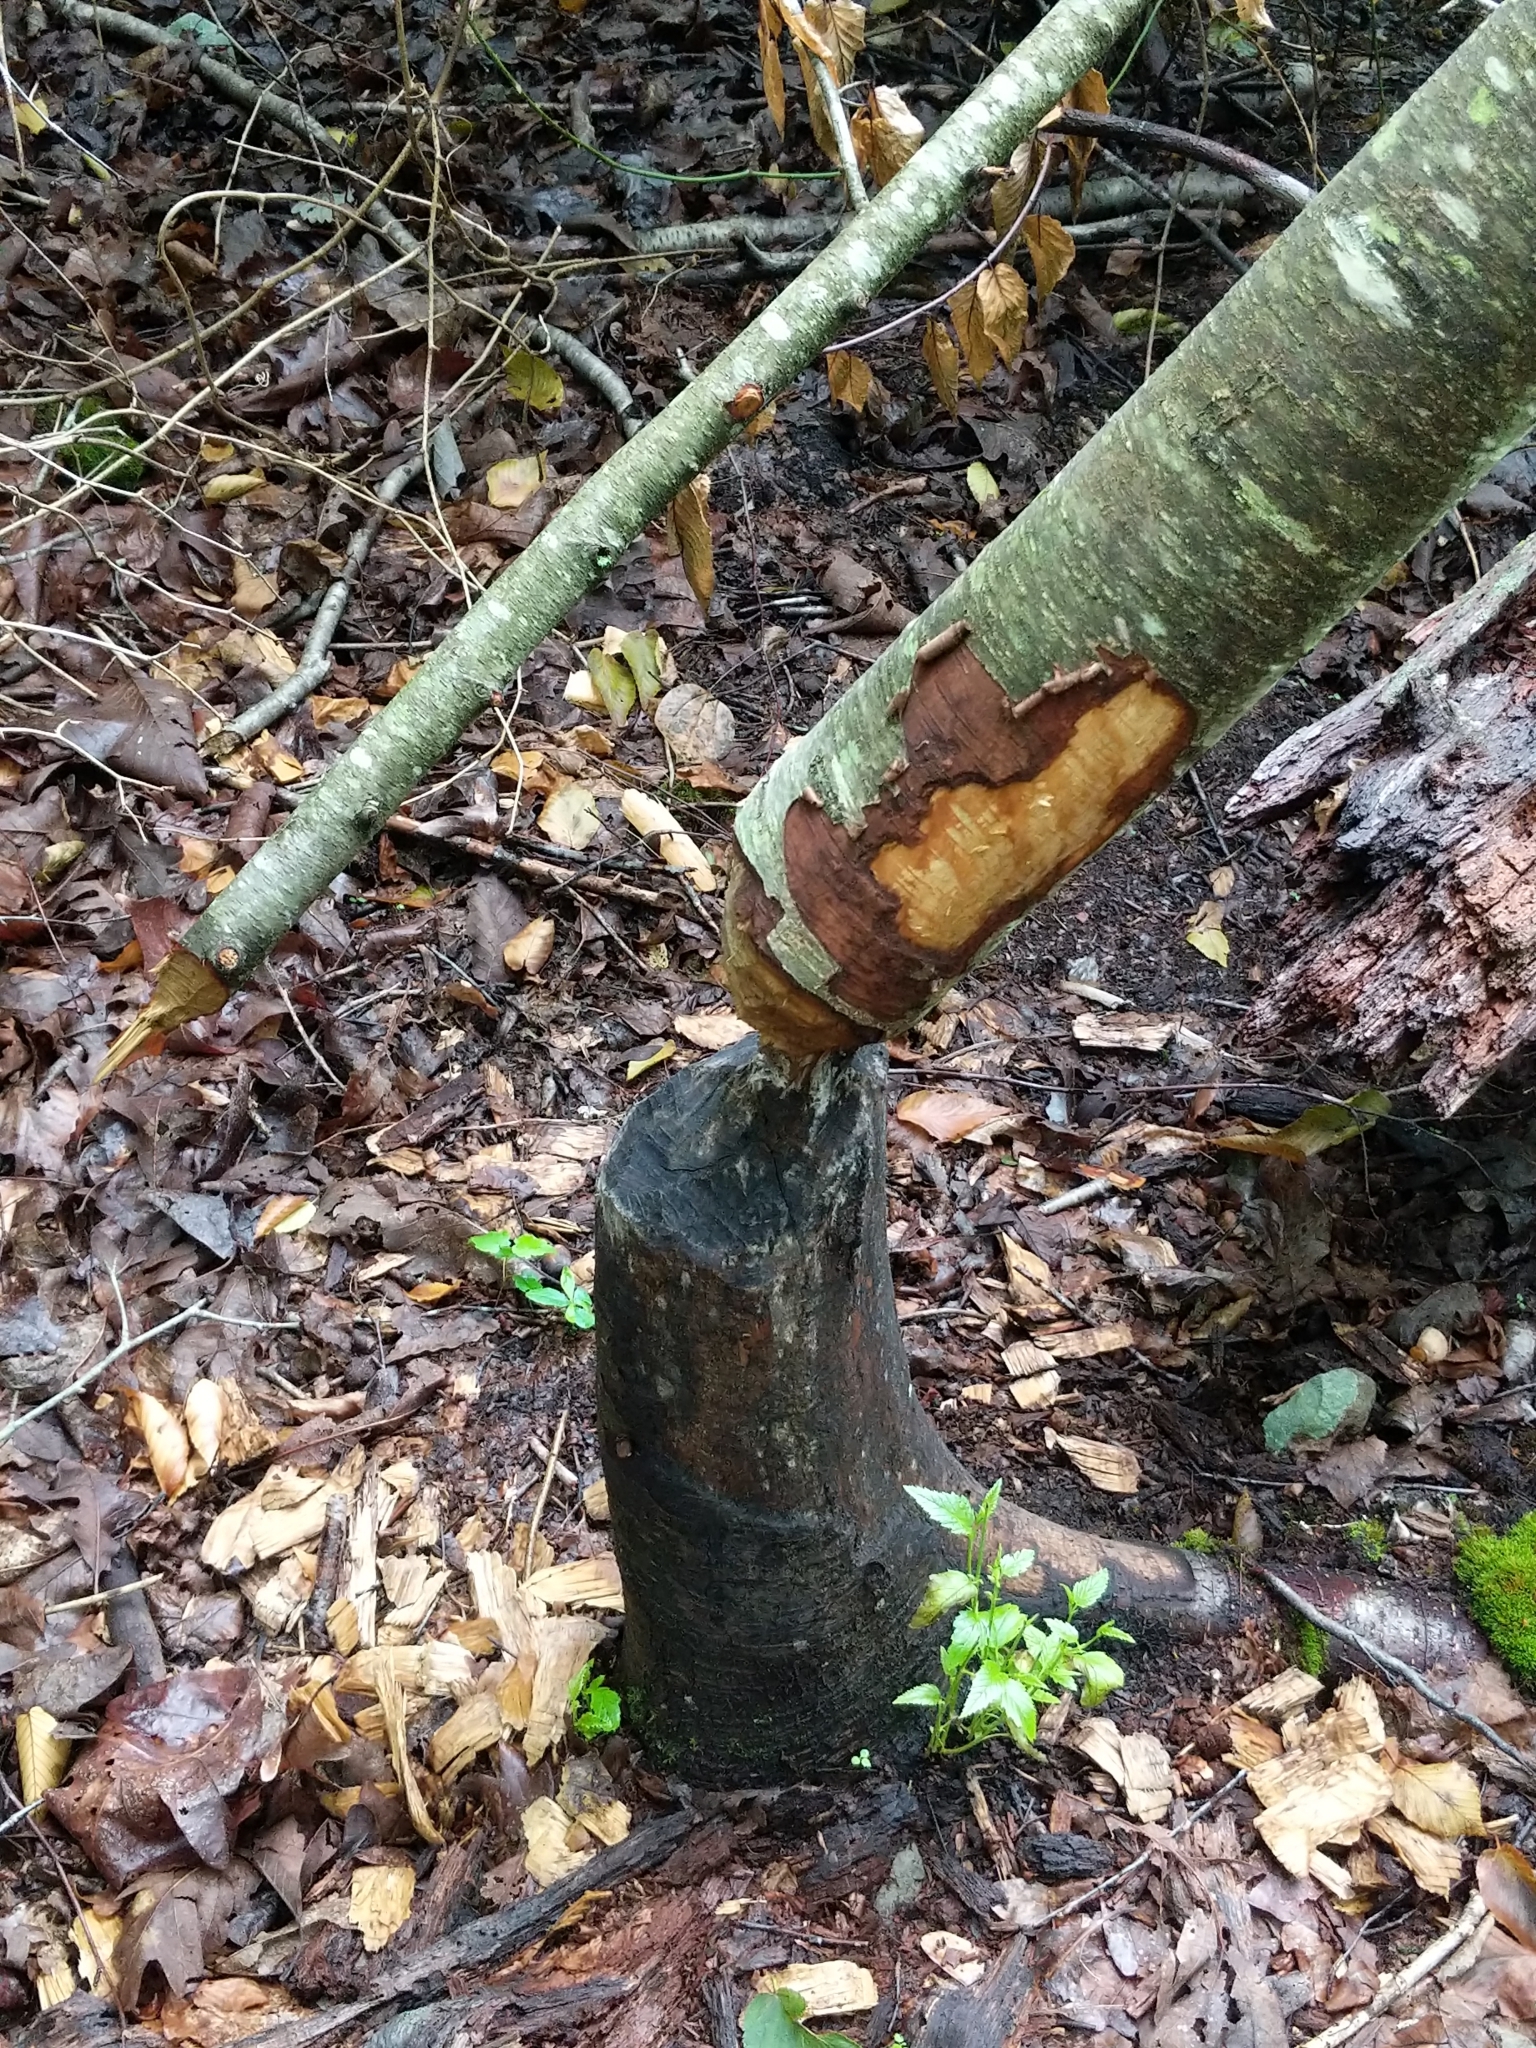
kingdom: Animalia
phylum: Chordata
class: Mammalia
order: Rodentia
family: Castoridae
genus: Castor
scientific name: Castor canadensis
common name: American beaver
